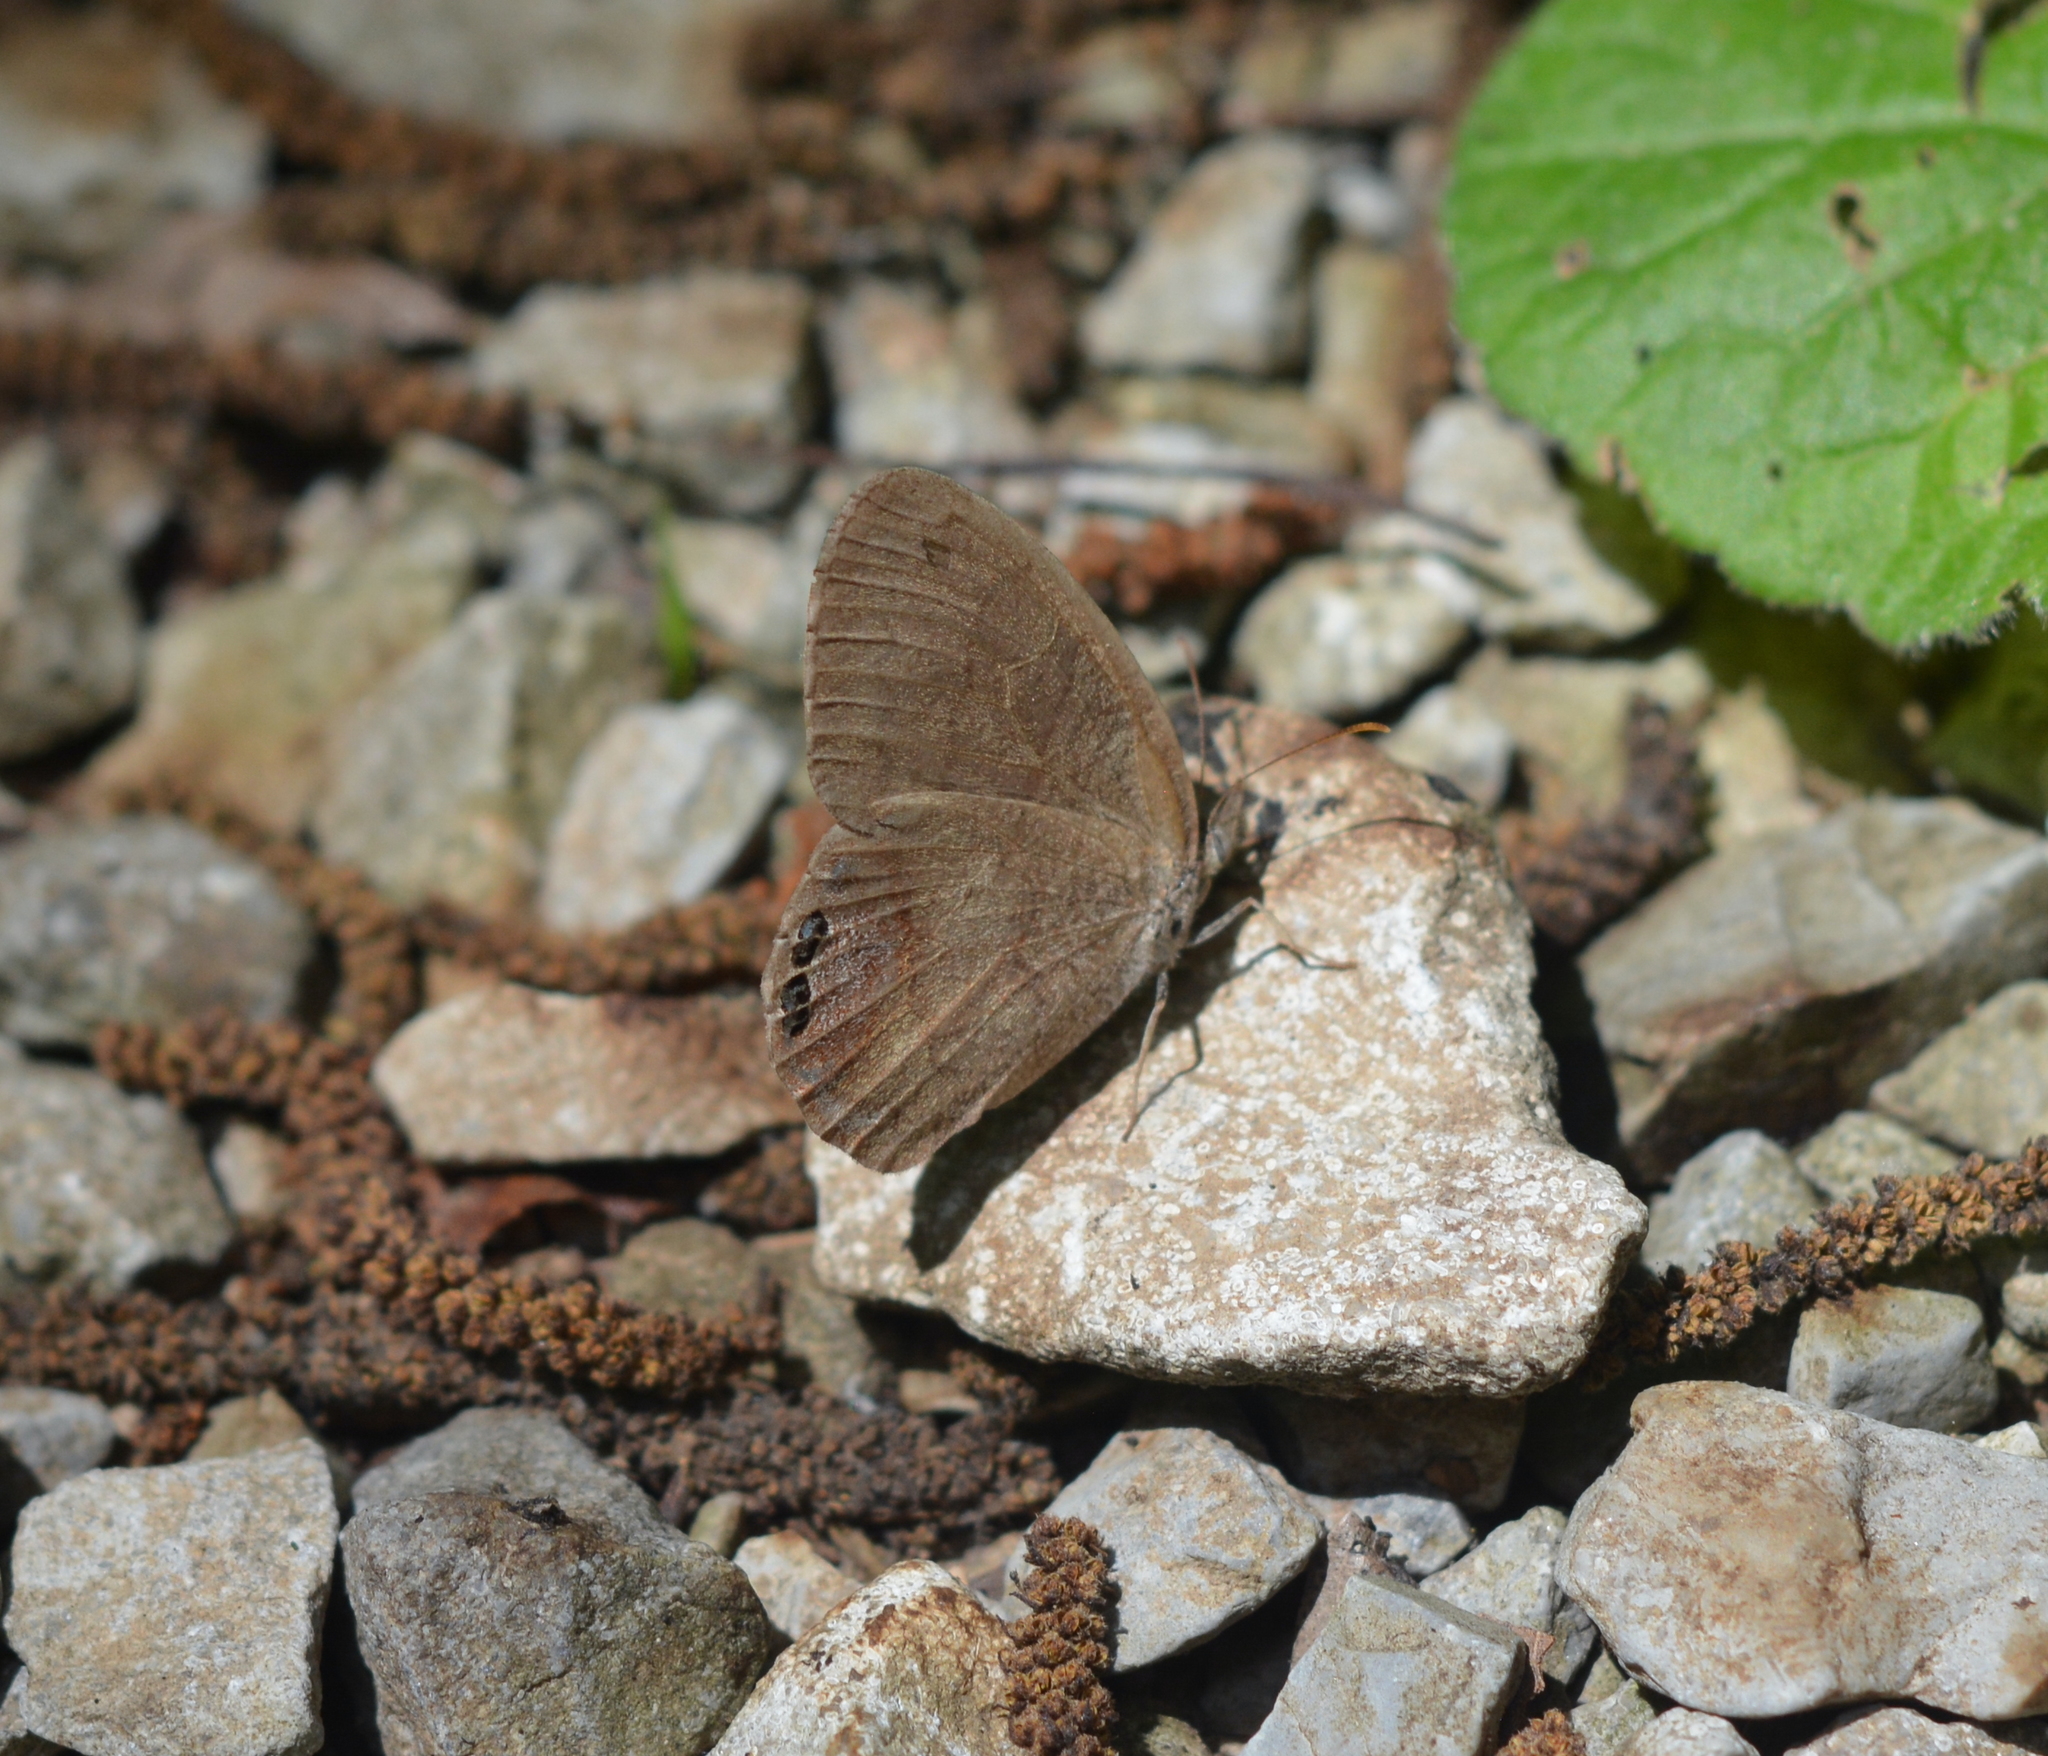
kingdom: Animalia
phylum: Arthropoda
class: Insecta
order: Lepidoptera
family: Nymphalidae
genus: Euptychia
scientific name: Euptychia cornelius
